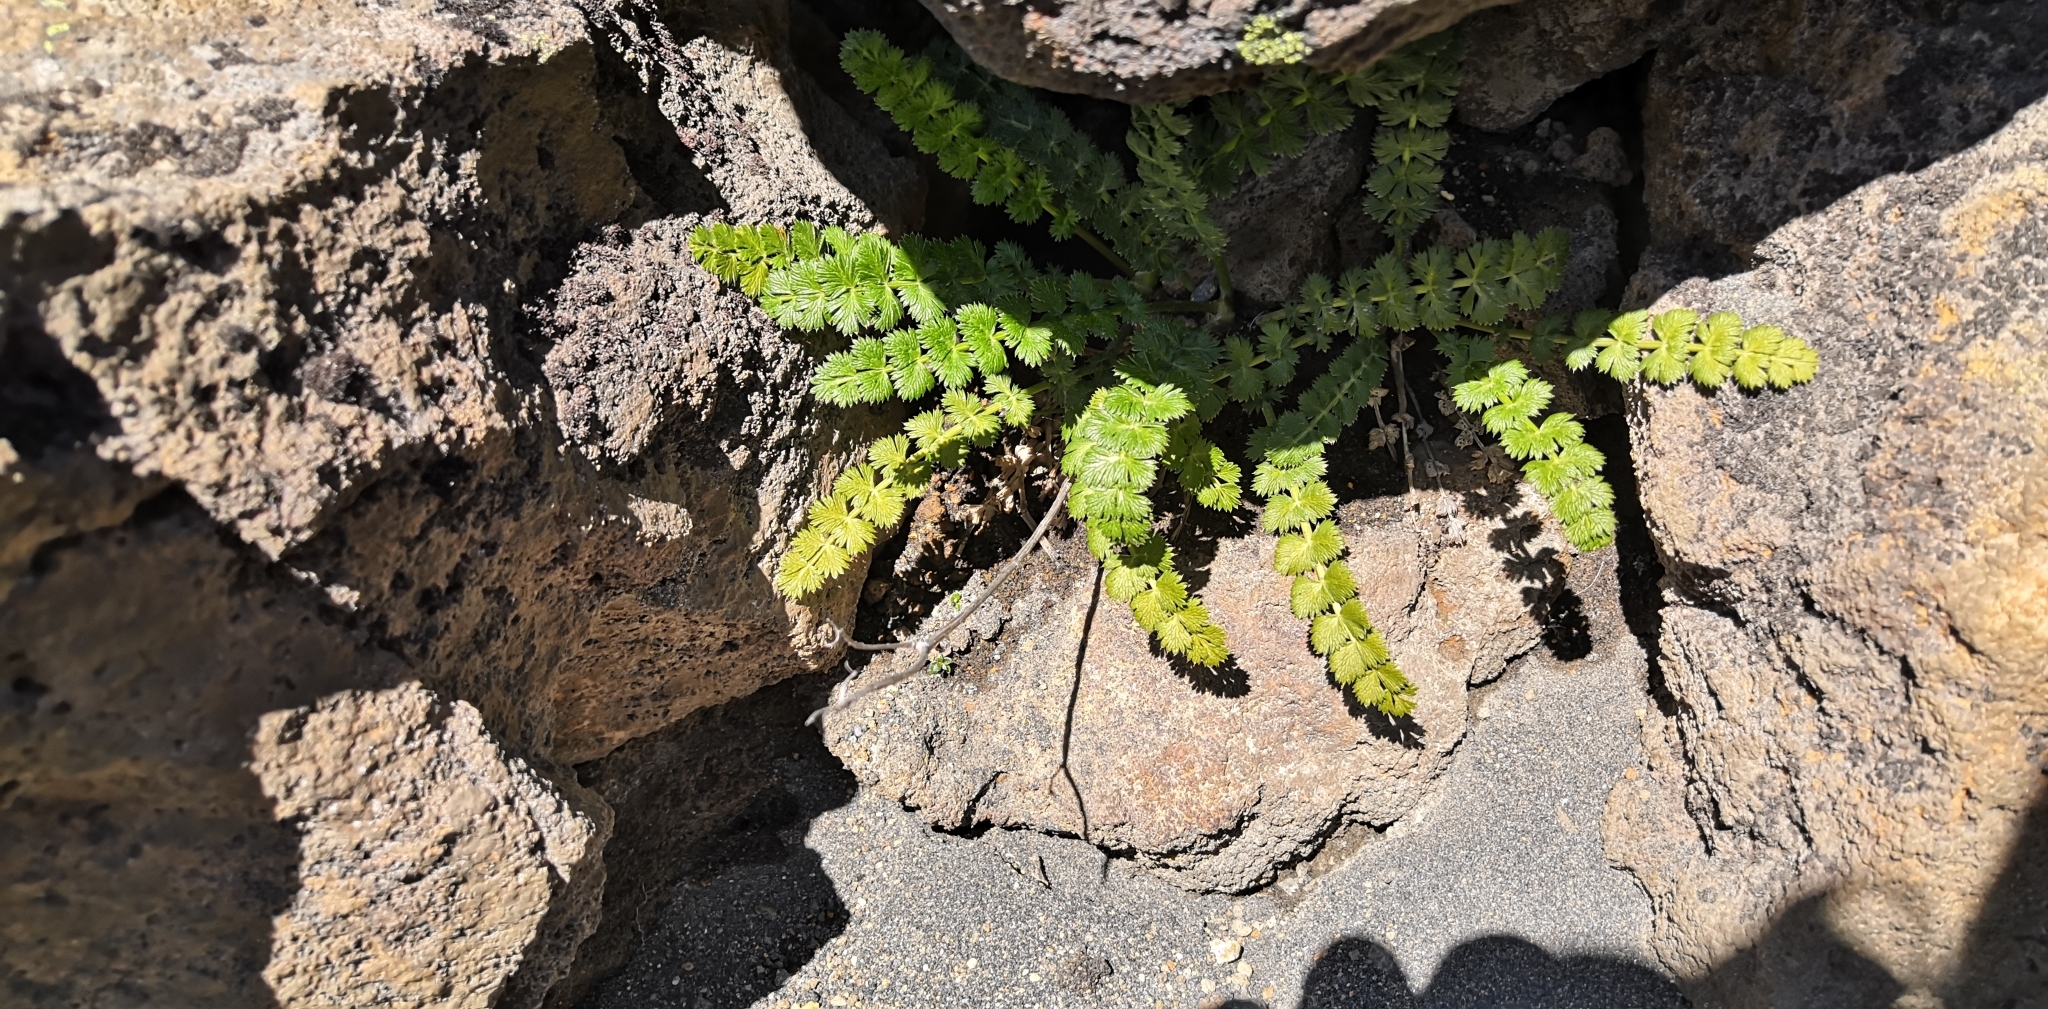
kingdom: Plantae
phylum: Tracheophyta
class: Magnoliopsida
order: Apiales
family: Apiaceae
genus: Anisotome
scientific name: Anisotome aromatica
